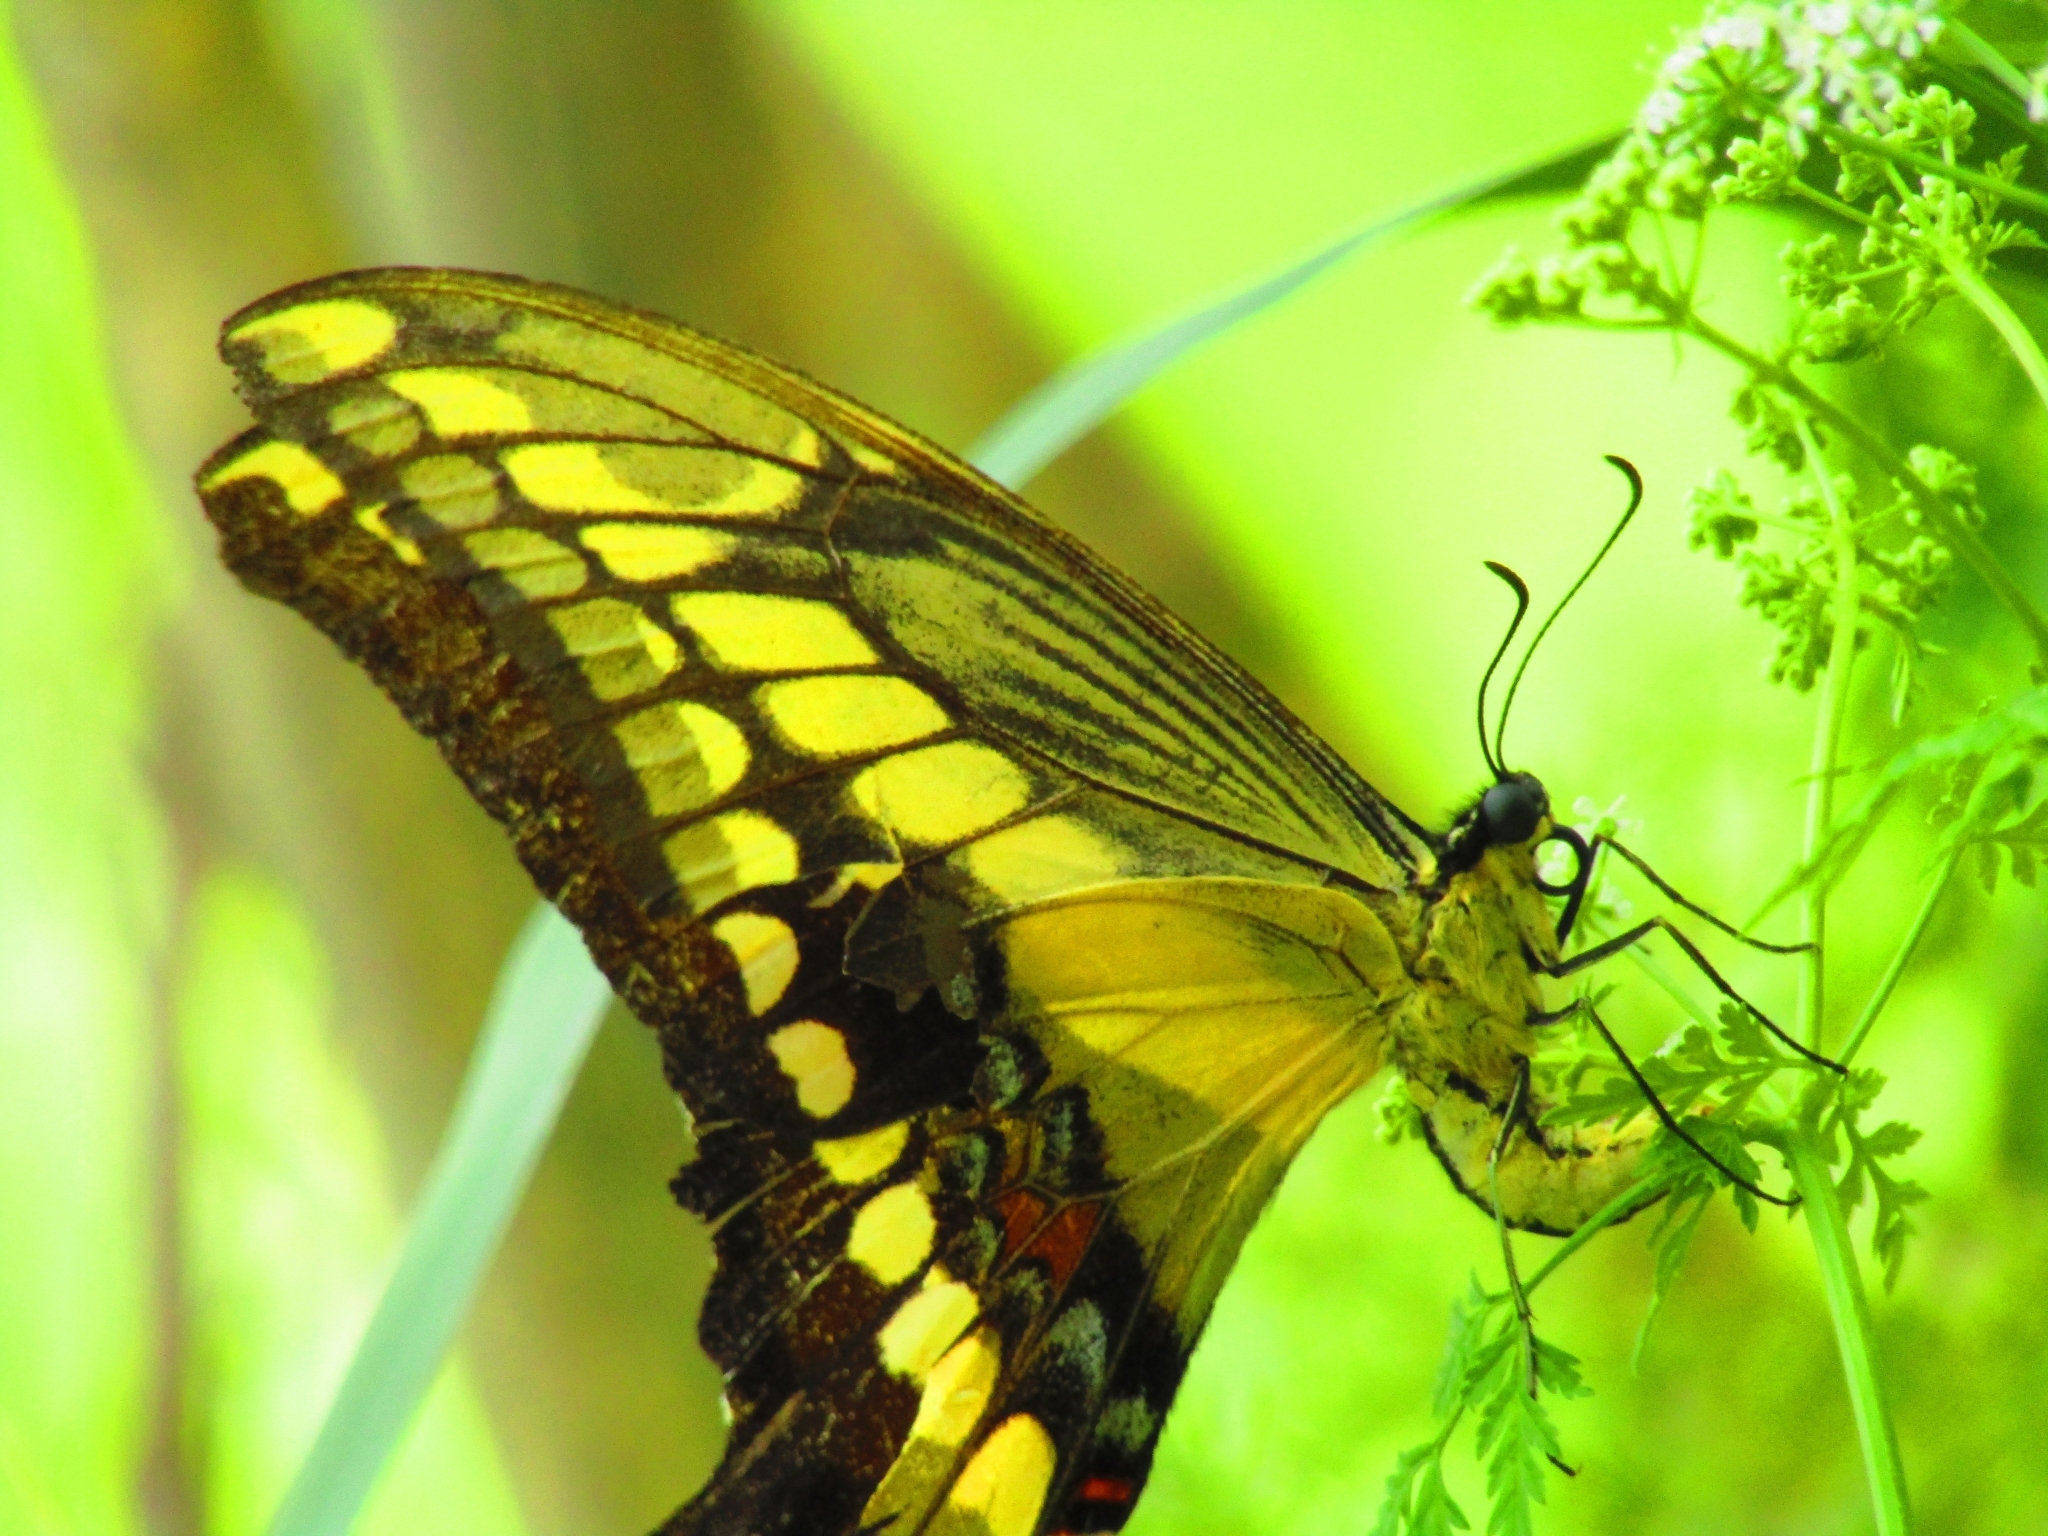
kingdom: Animalia
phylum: Arthropoda
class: Insecta
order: Lepidoptera
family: Papilionidae
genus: Papilio
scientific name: Papilio thoas
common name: King swallowtail
